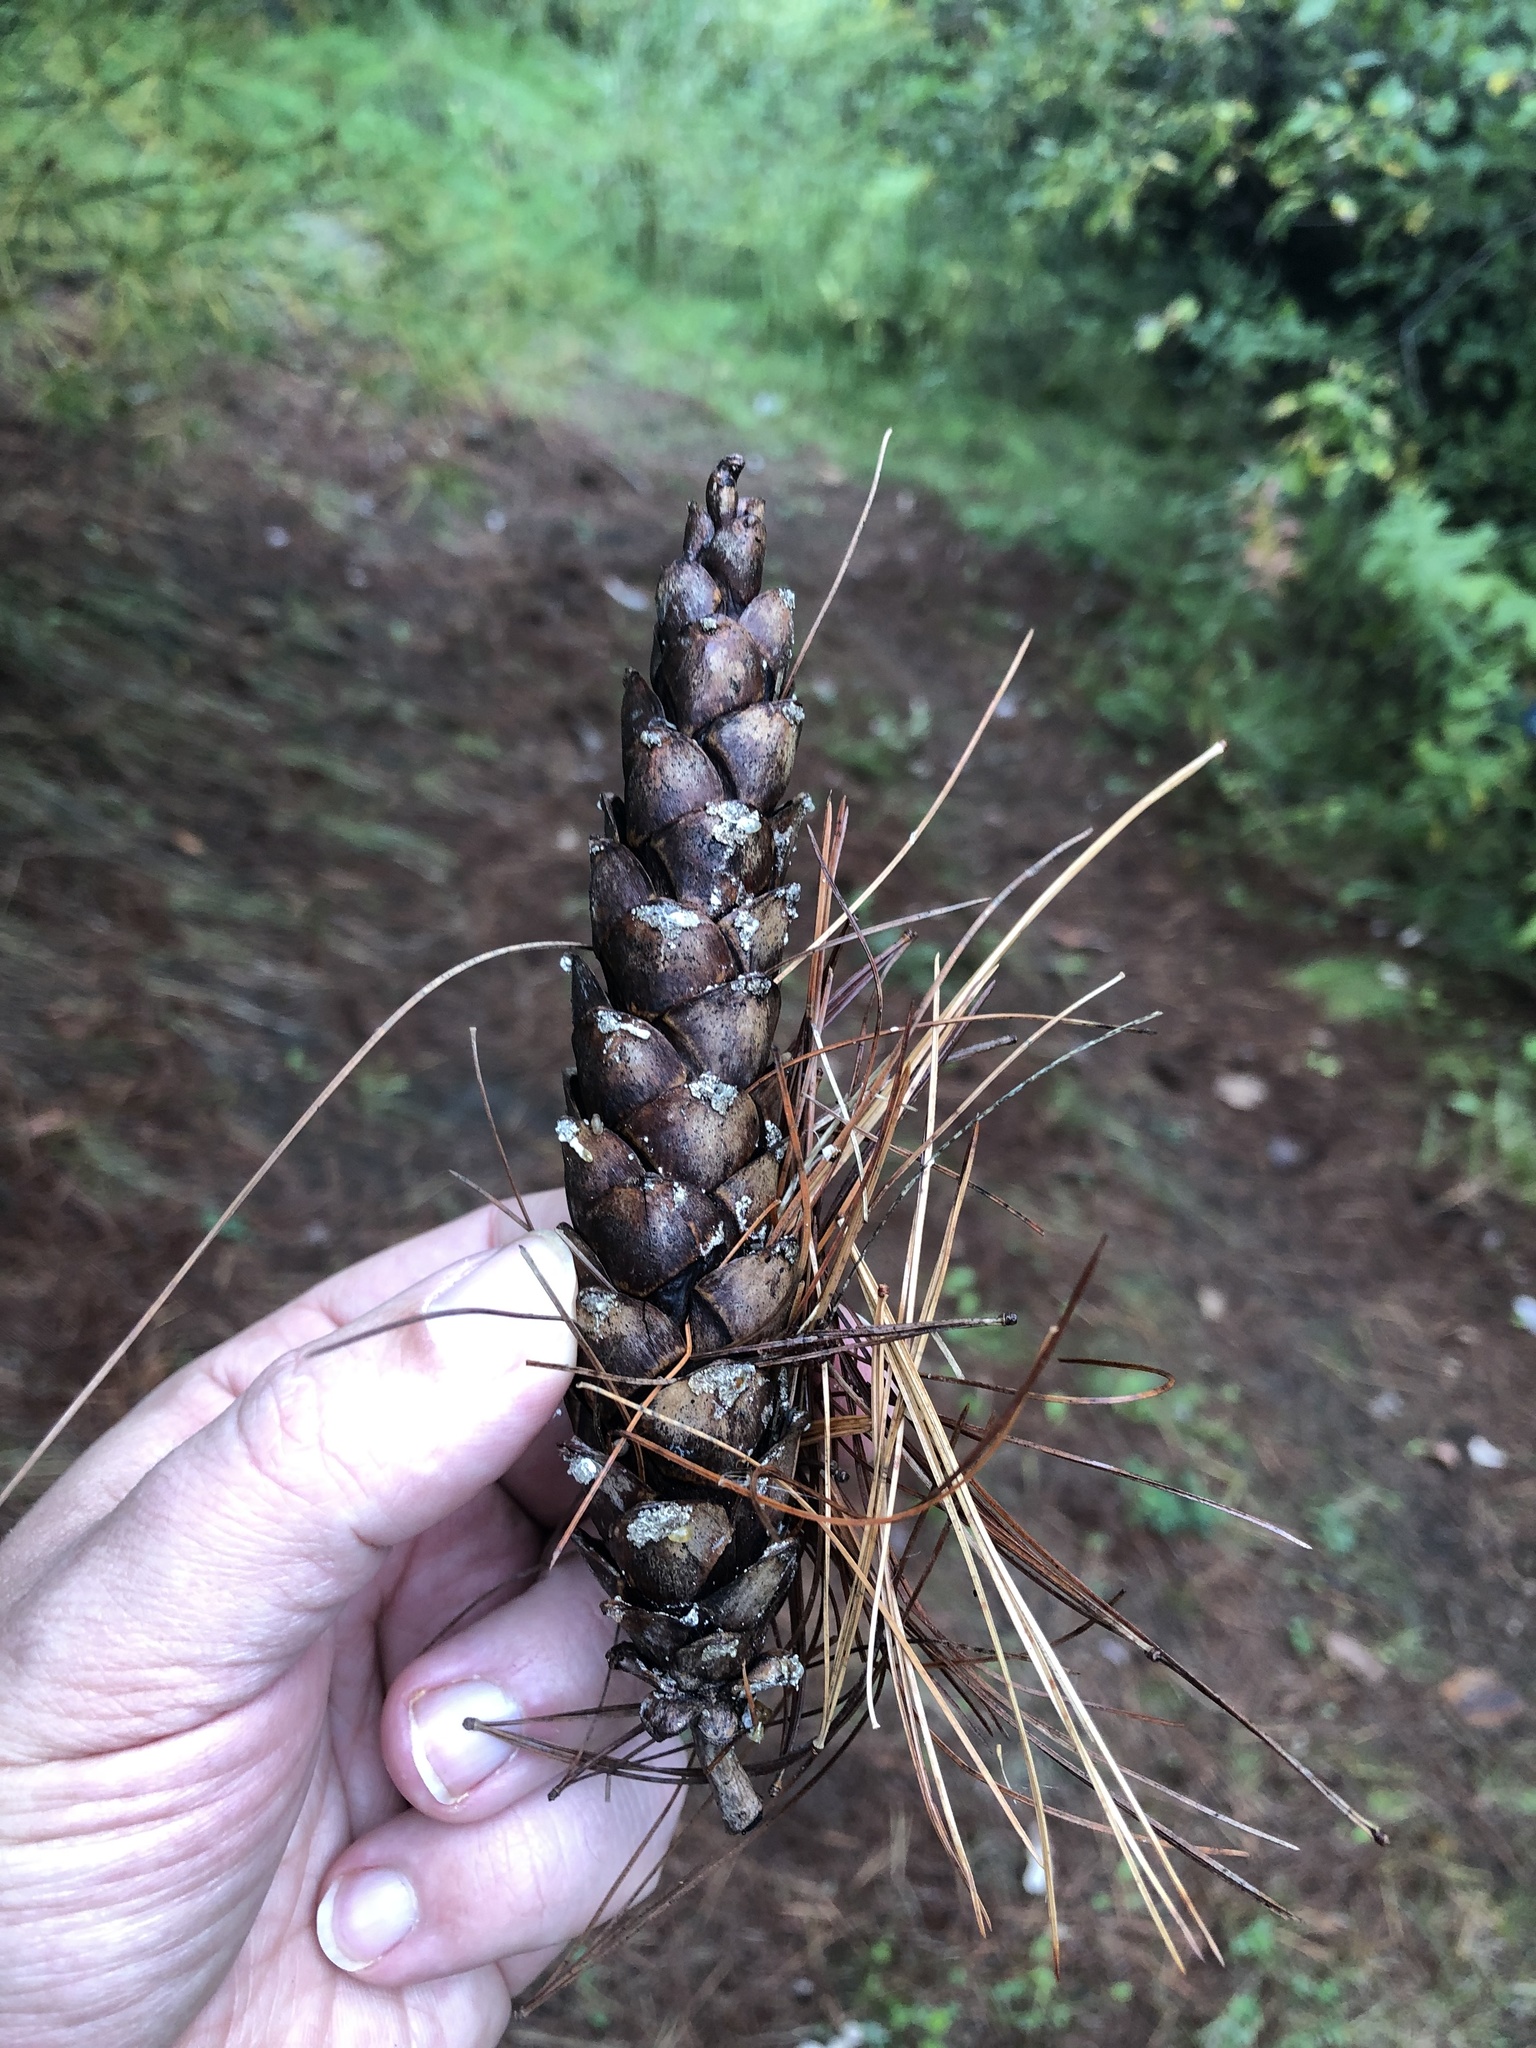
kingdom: Plantae
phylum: Tracheophyta
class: Pinopsida
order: Pinales
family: Pinaceae
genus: Pinus
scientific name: Pinus strobus
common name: Weymouth pine
